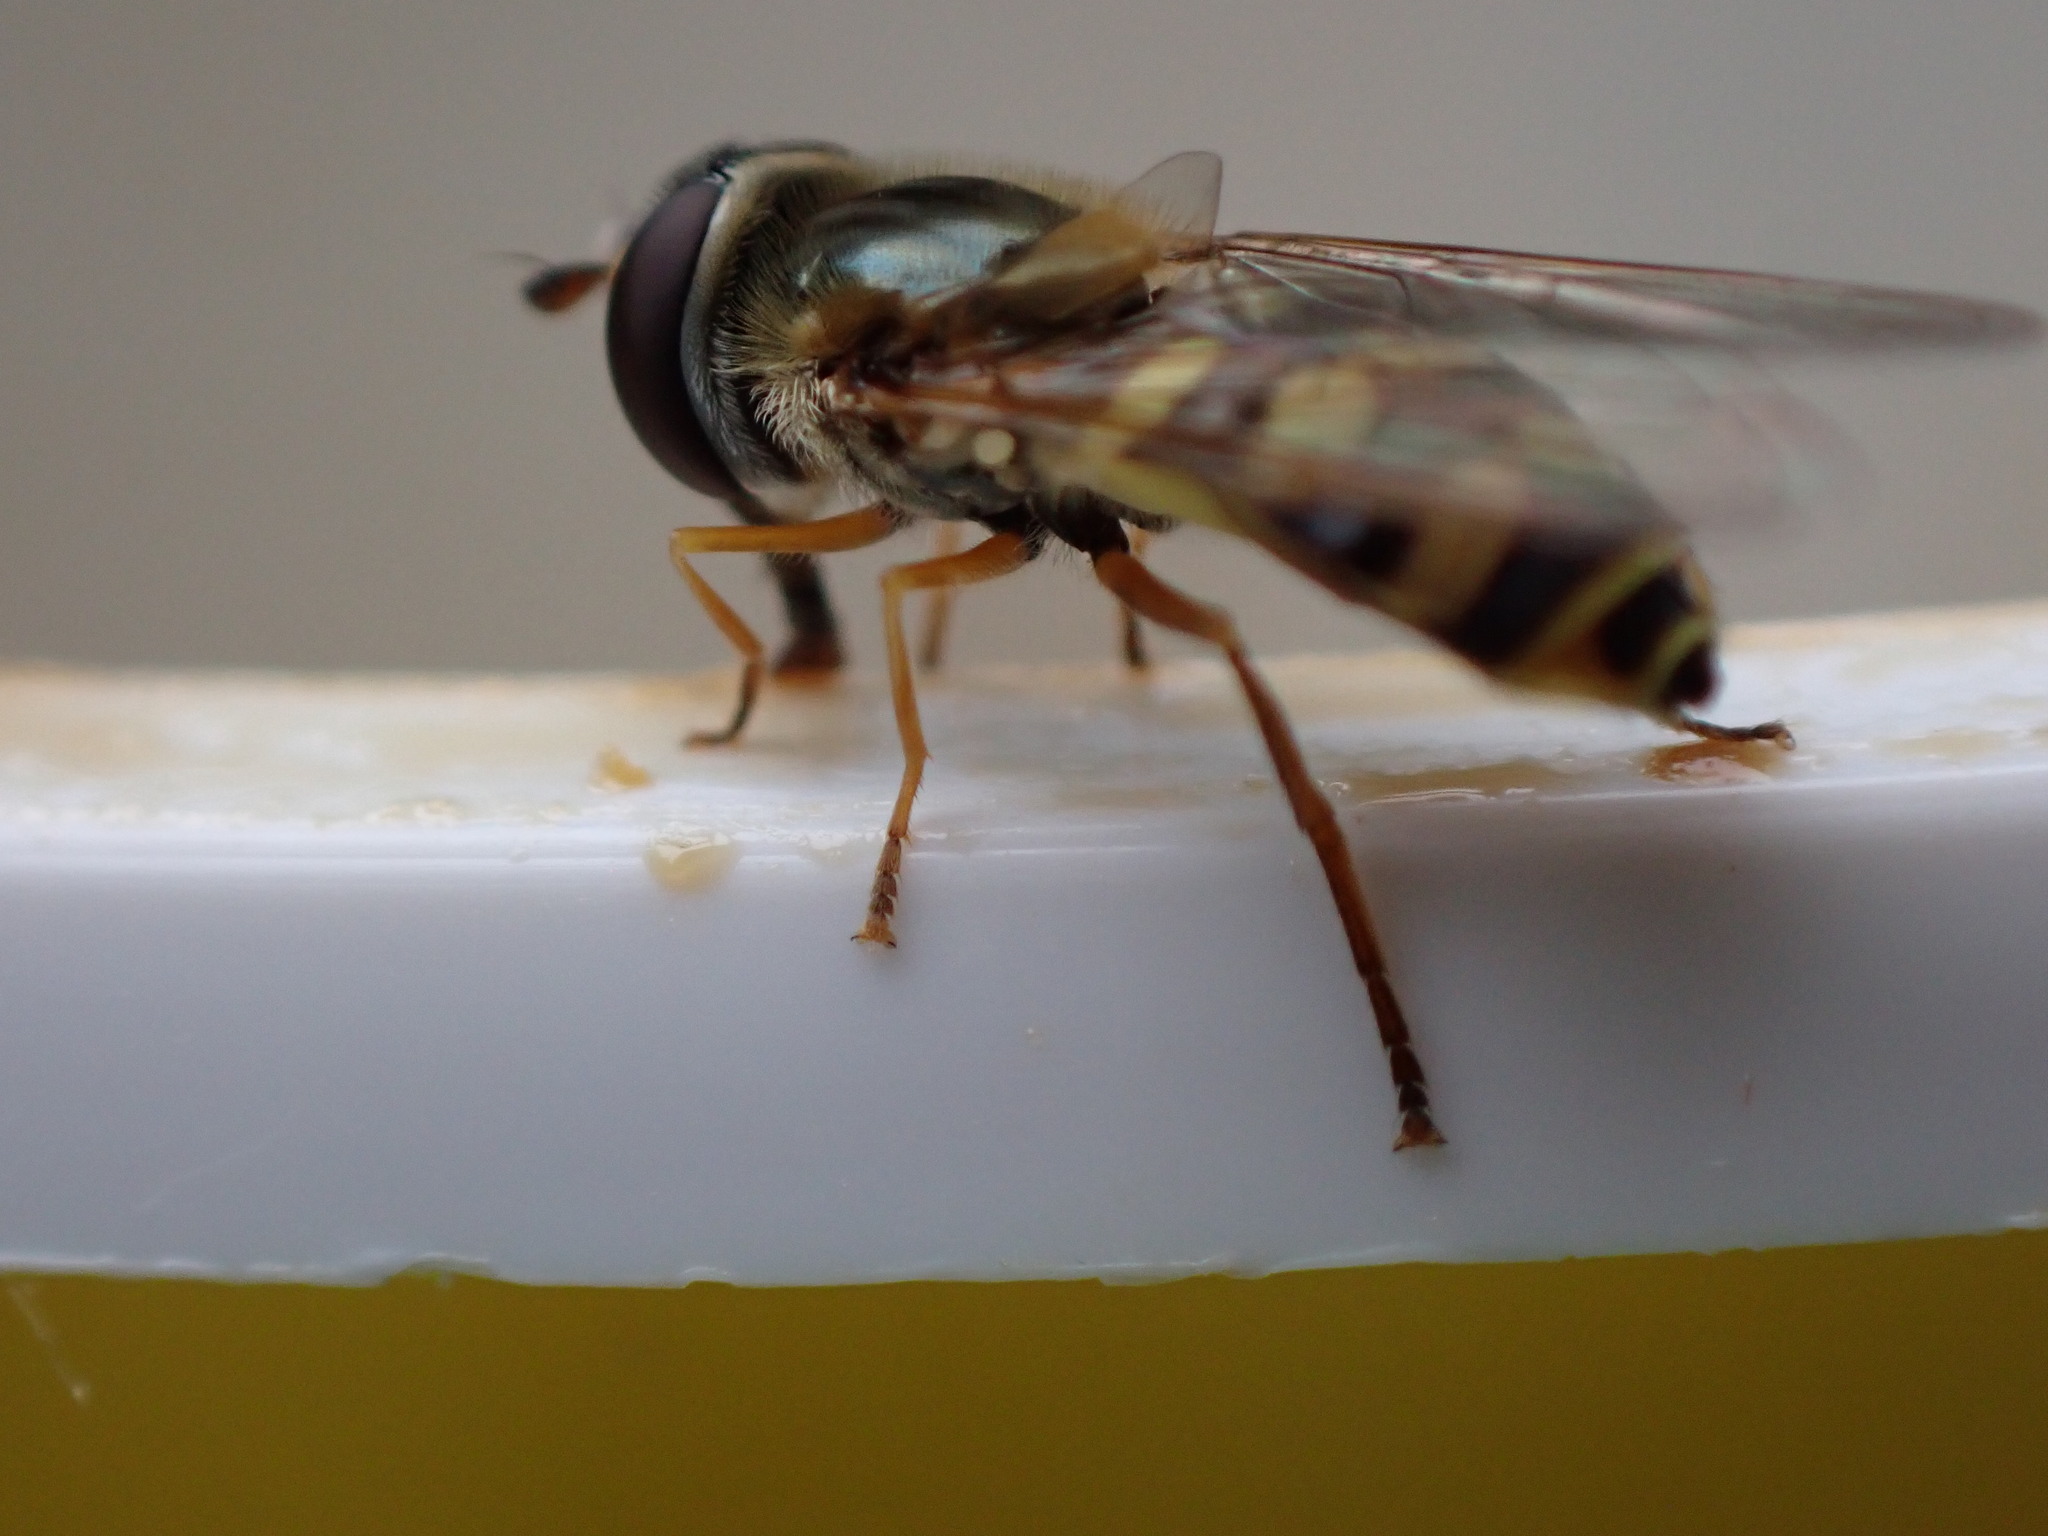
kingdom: Animalia
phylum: Arthropoda
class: Insecta
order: Diptera
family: Syrphidae
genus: Eupeodes
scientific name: Eupeodes corollae
